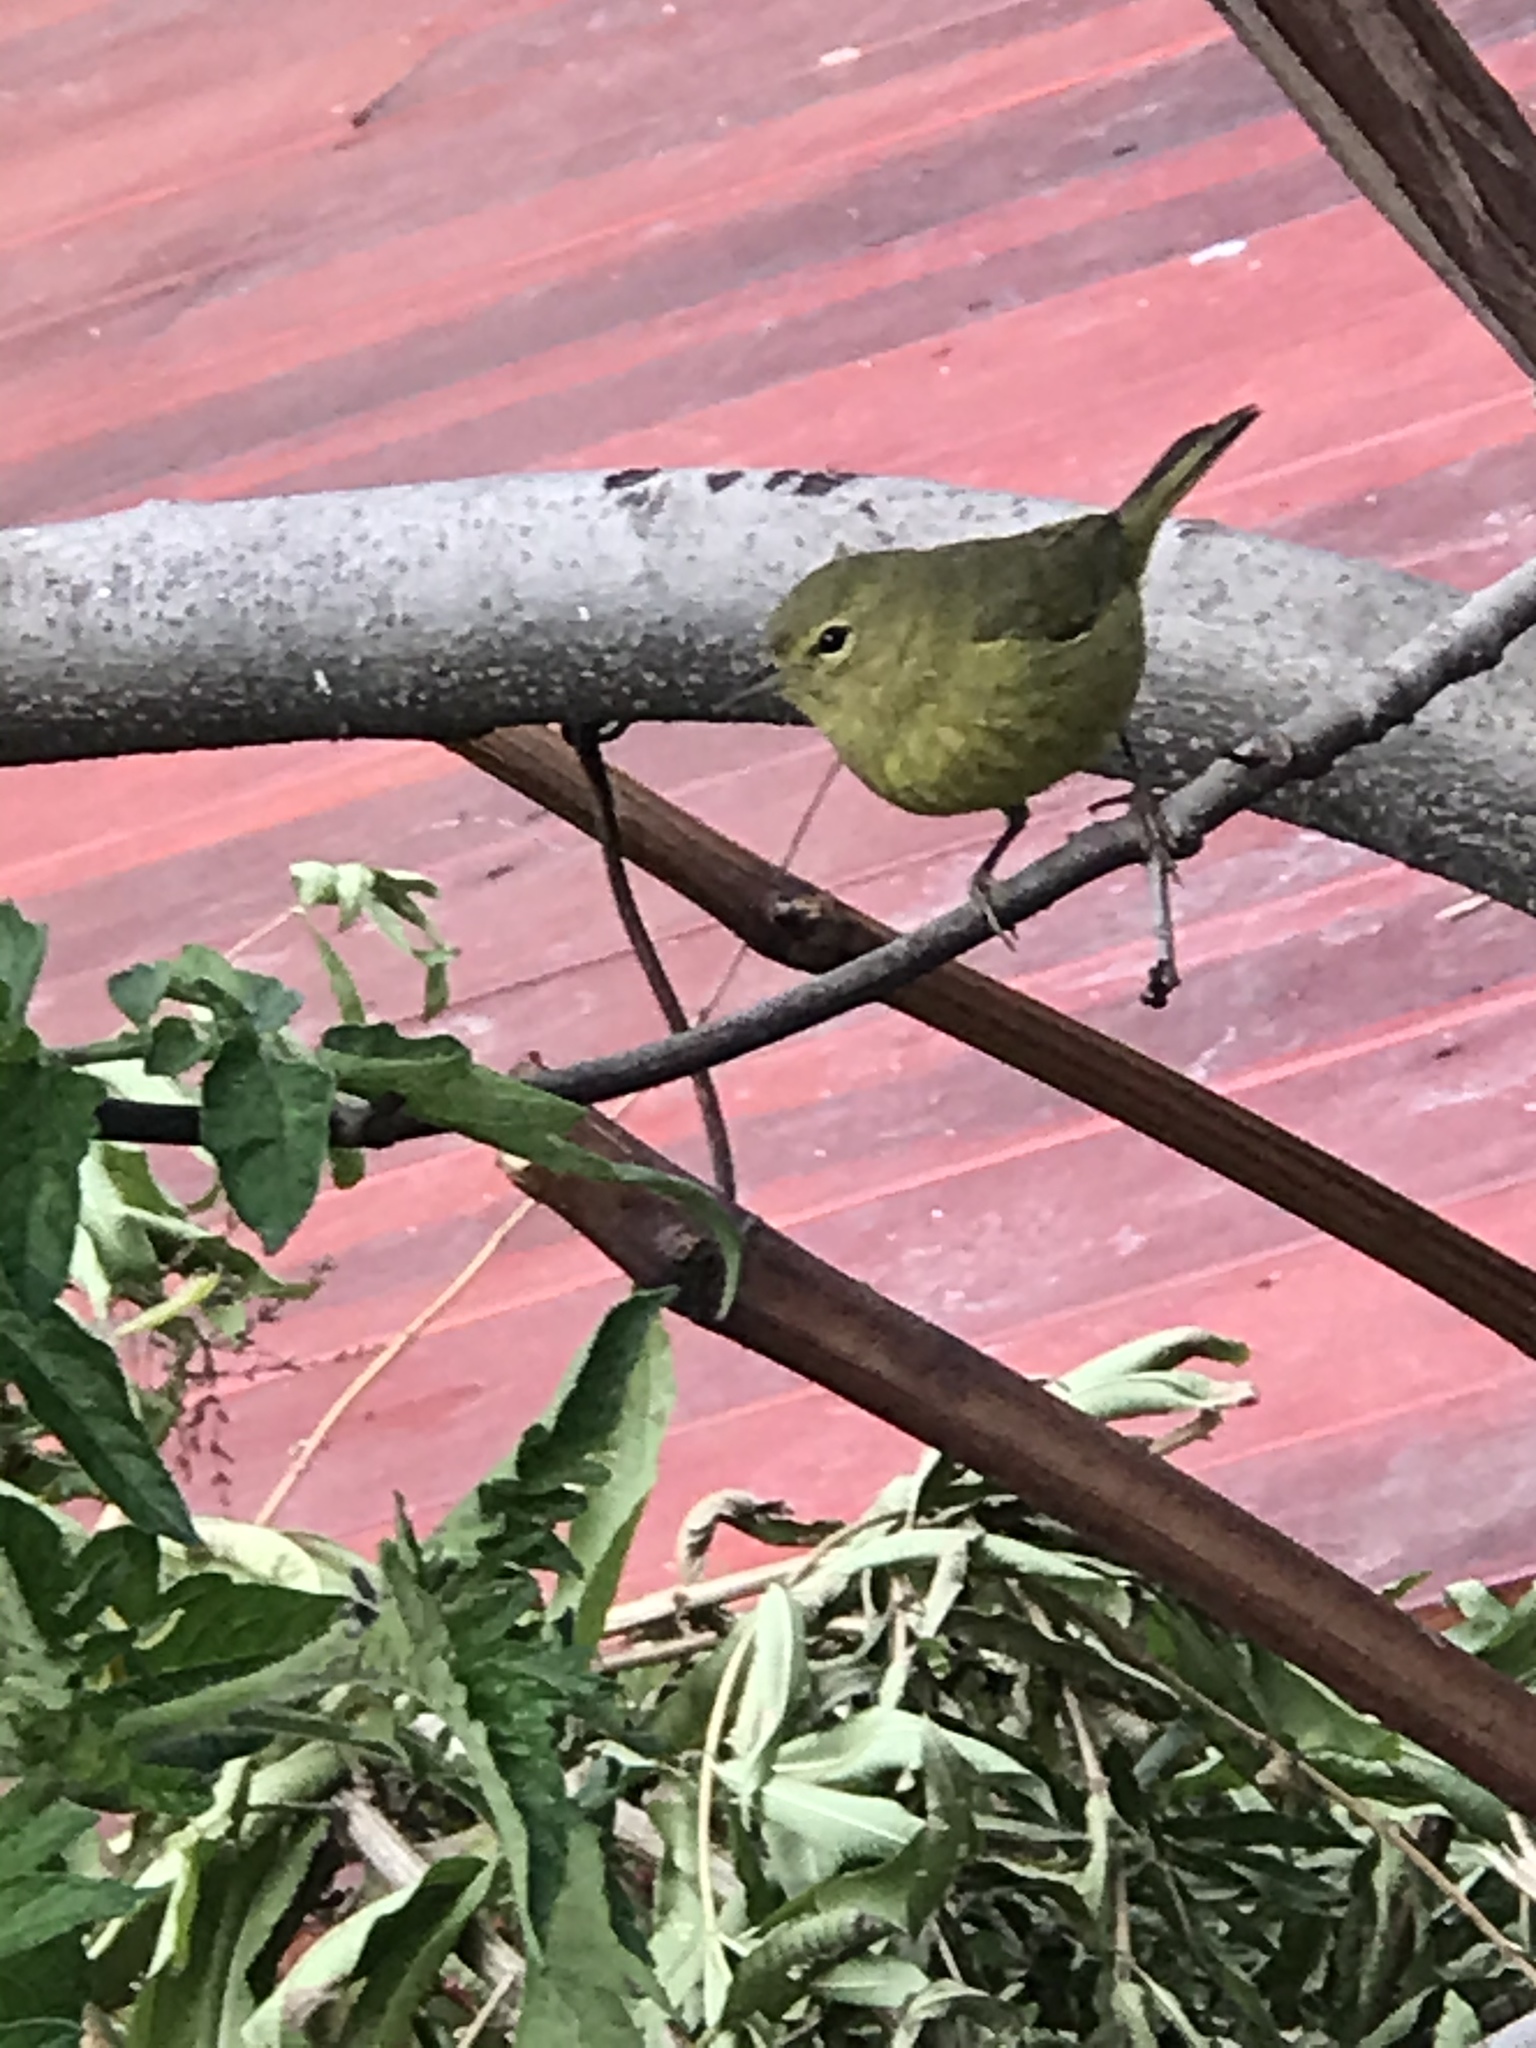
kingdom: Animalia
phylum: Chordata
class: Aves
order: Passeriformes
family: Parulidae
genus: Leiothlypis
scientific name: Leiothlypis celata
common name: Orange-crowned warbler
